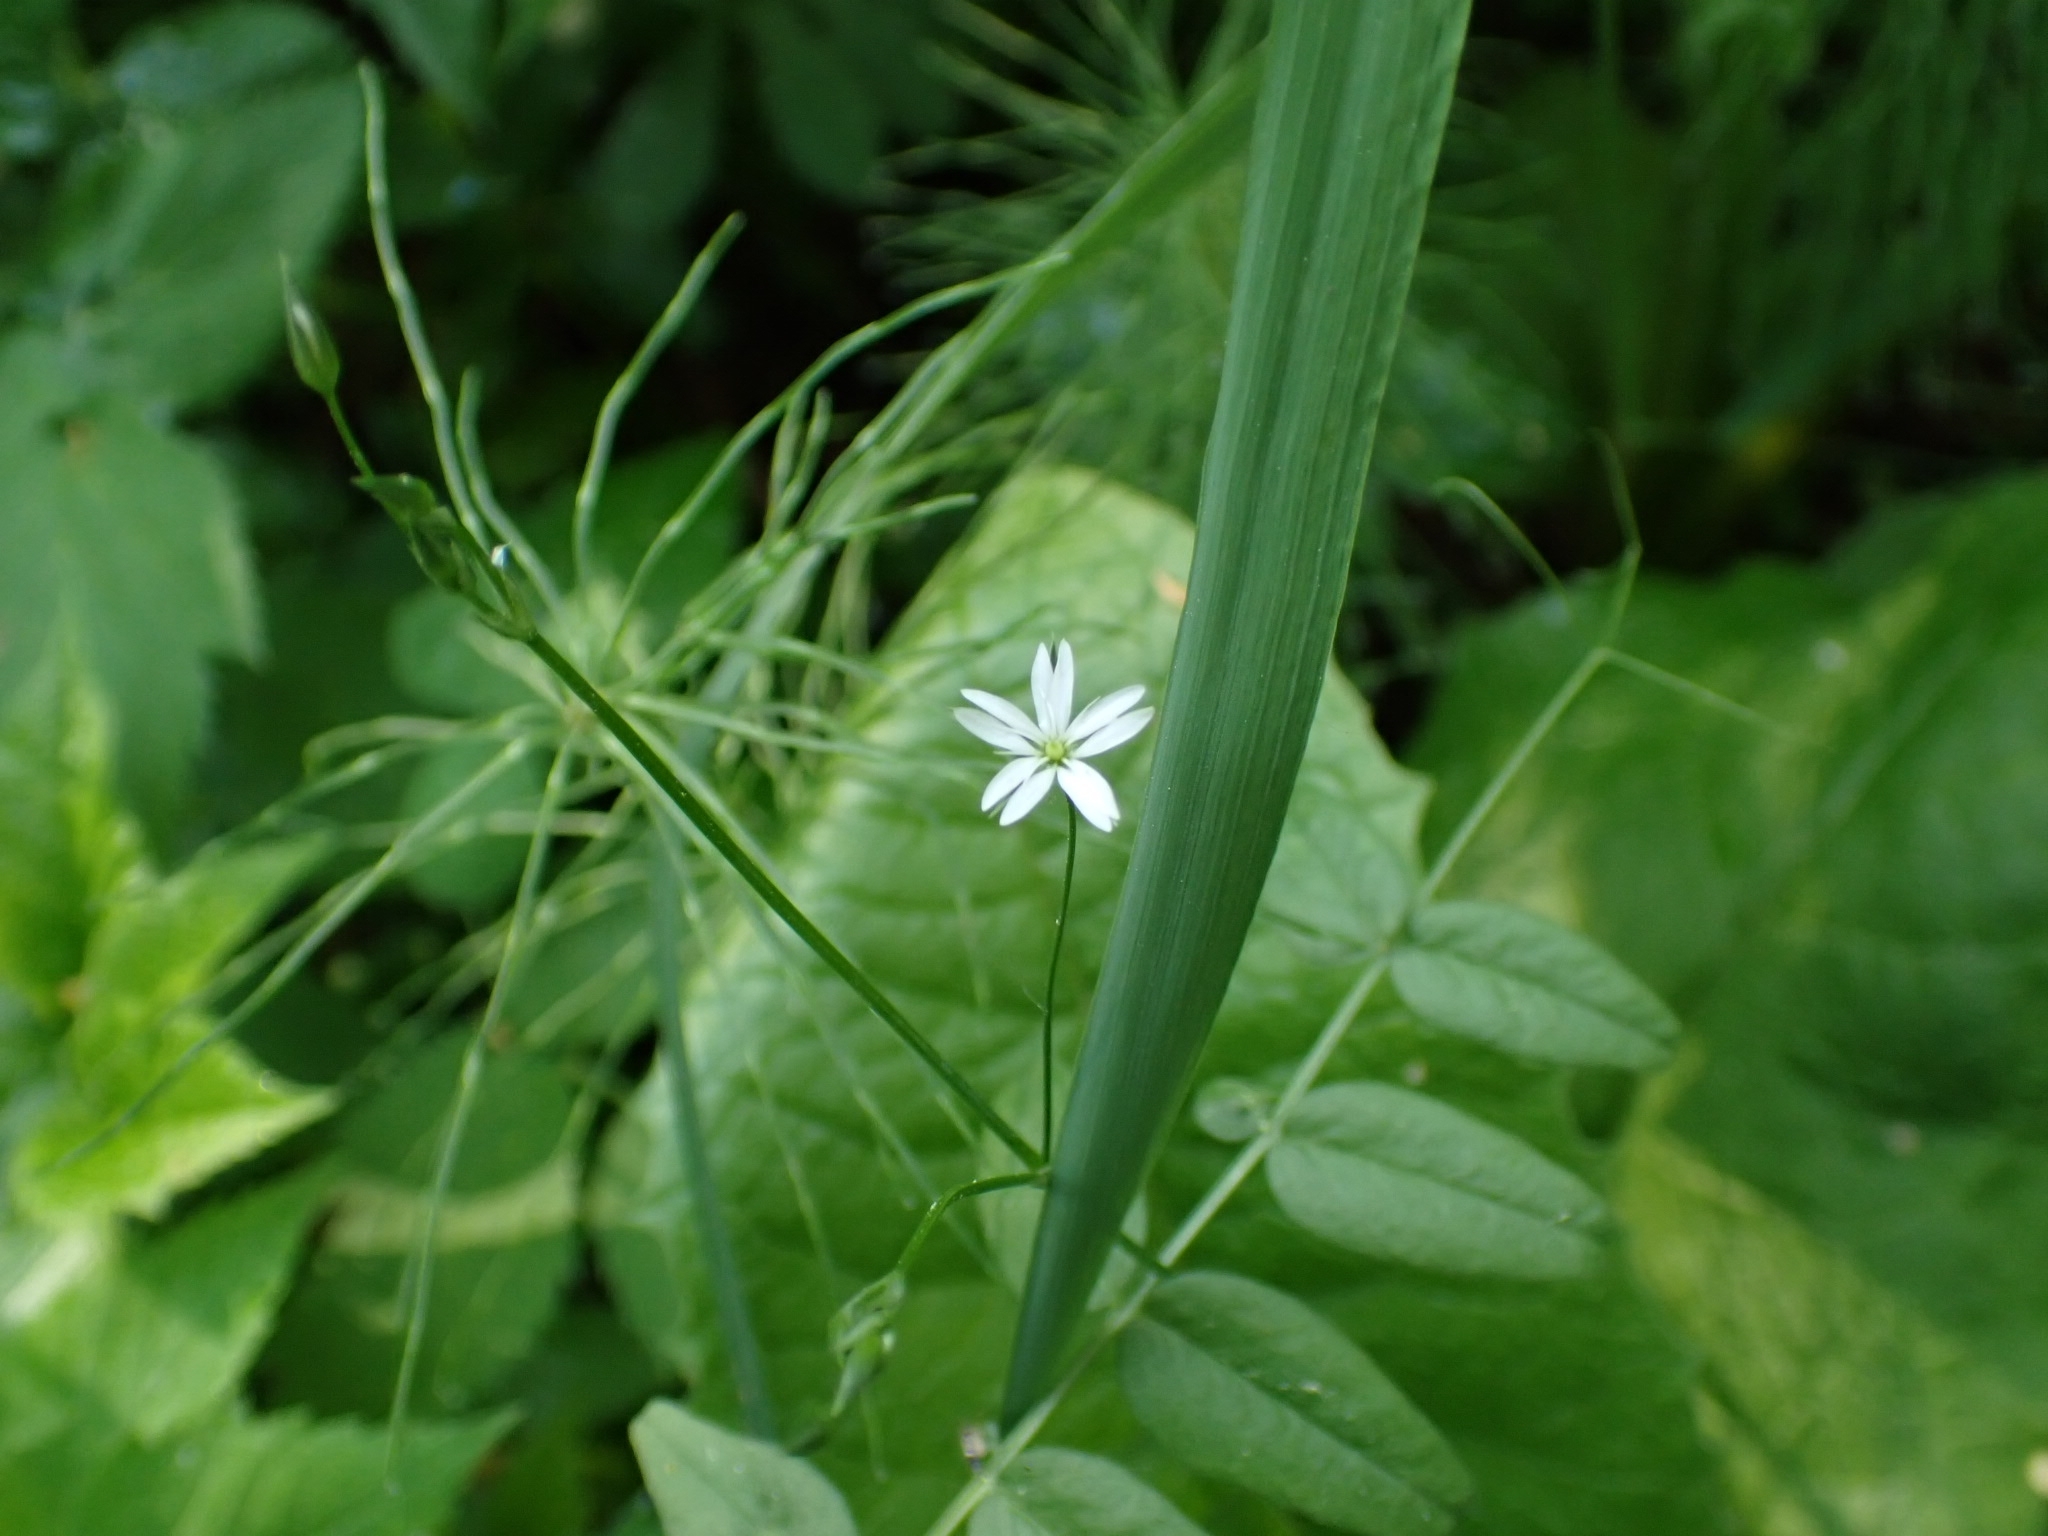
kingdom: Plantae
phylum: Tracheophyta
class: Magnoliopsida
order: Caryophyllales
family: Caryophyllaceae
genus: Stellaria
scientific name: Stellaria graminea
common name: Grass-like starwort
